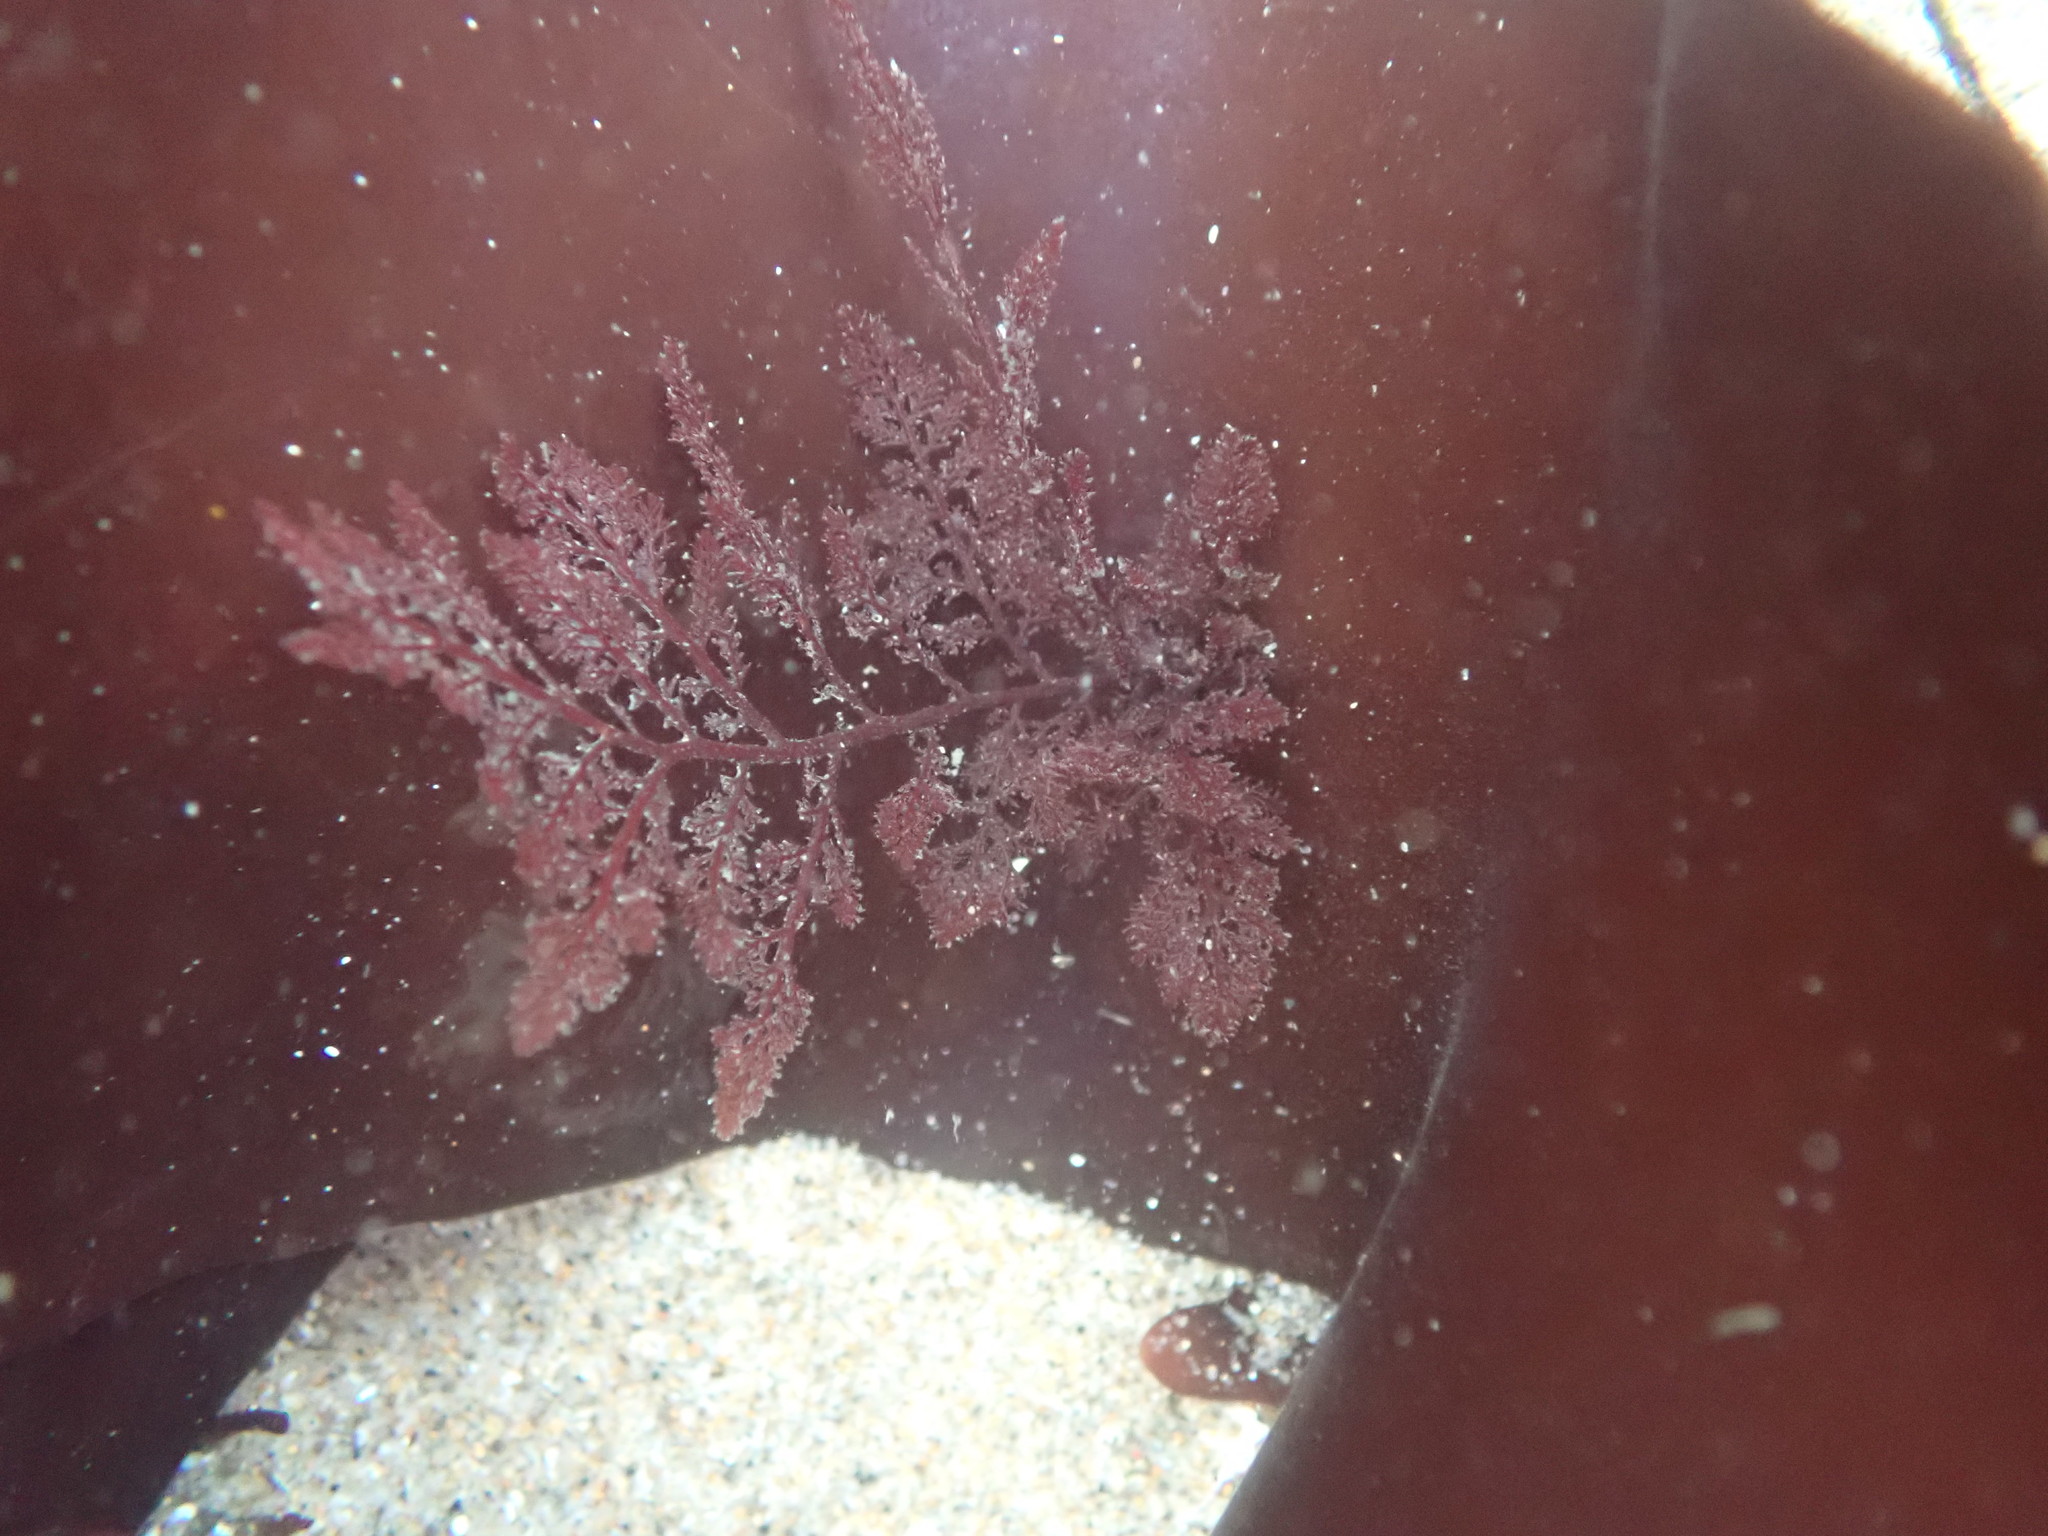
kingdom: Plantae
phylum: Rhodophyta
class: Florideophyceae
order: Ceramiales
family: Ceramiaceae
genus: Microcladia
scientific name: Microcladia coulteri
